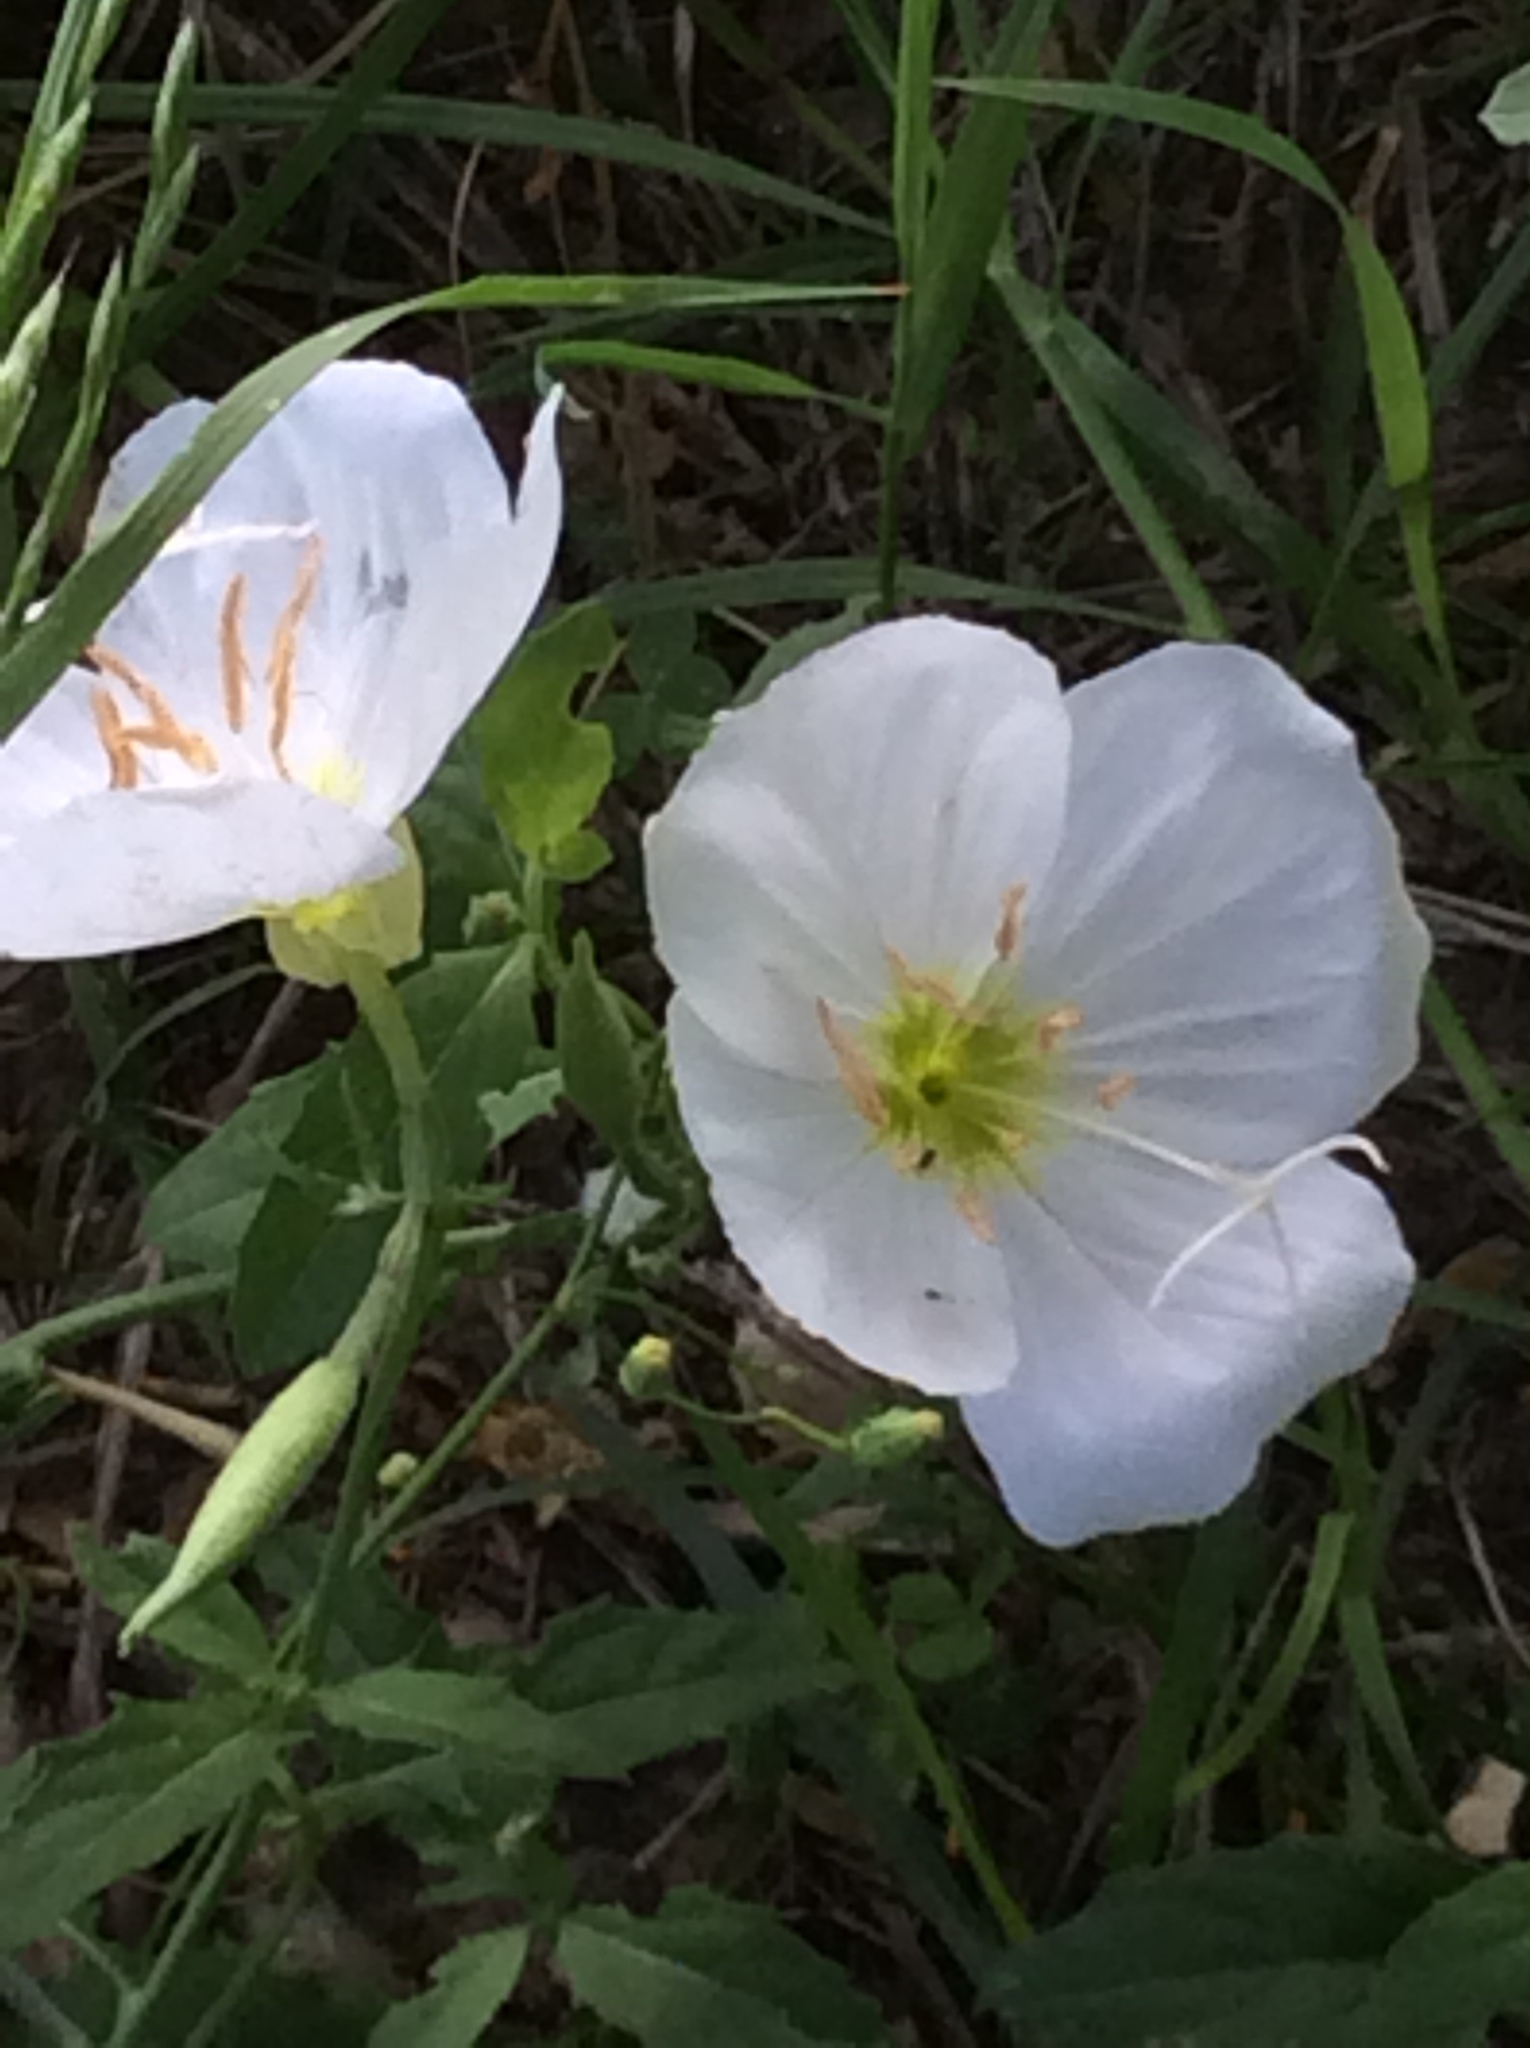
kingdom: Plantae
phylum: Tracheophyta
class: Magnoliopsida
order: Myrtales
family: Onagraceae
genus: Oenothera
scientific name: Oenothera speciosa
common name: White evening-primrose
